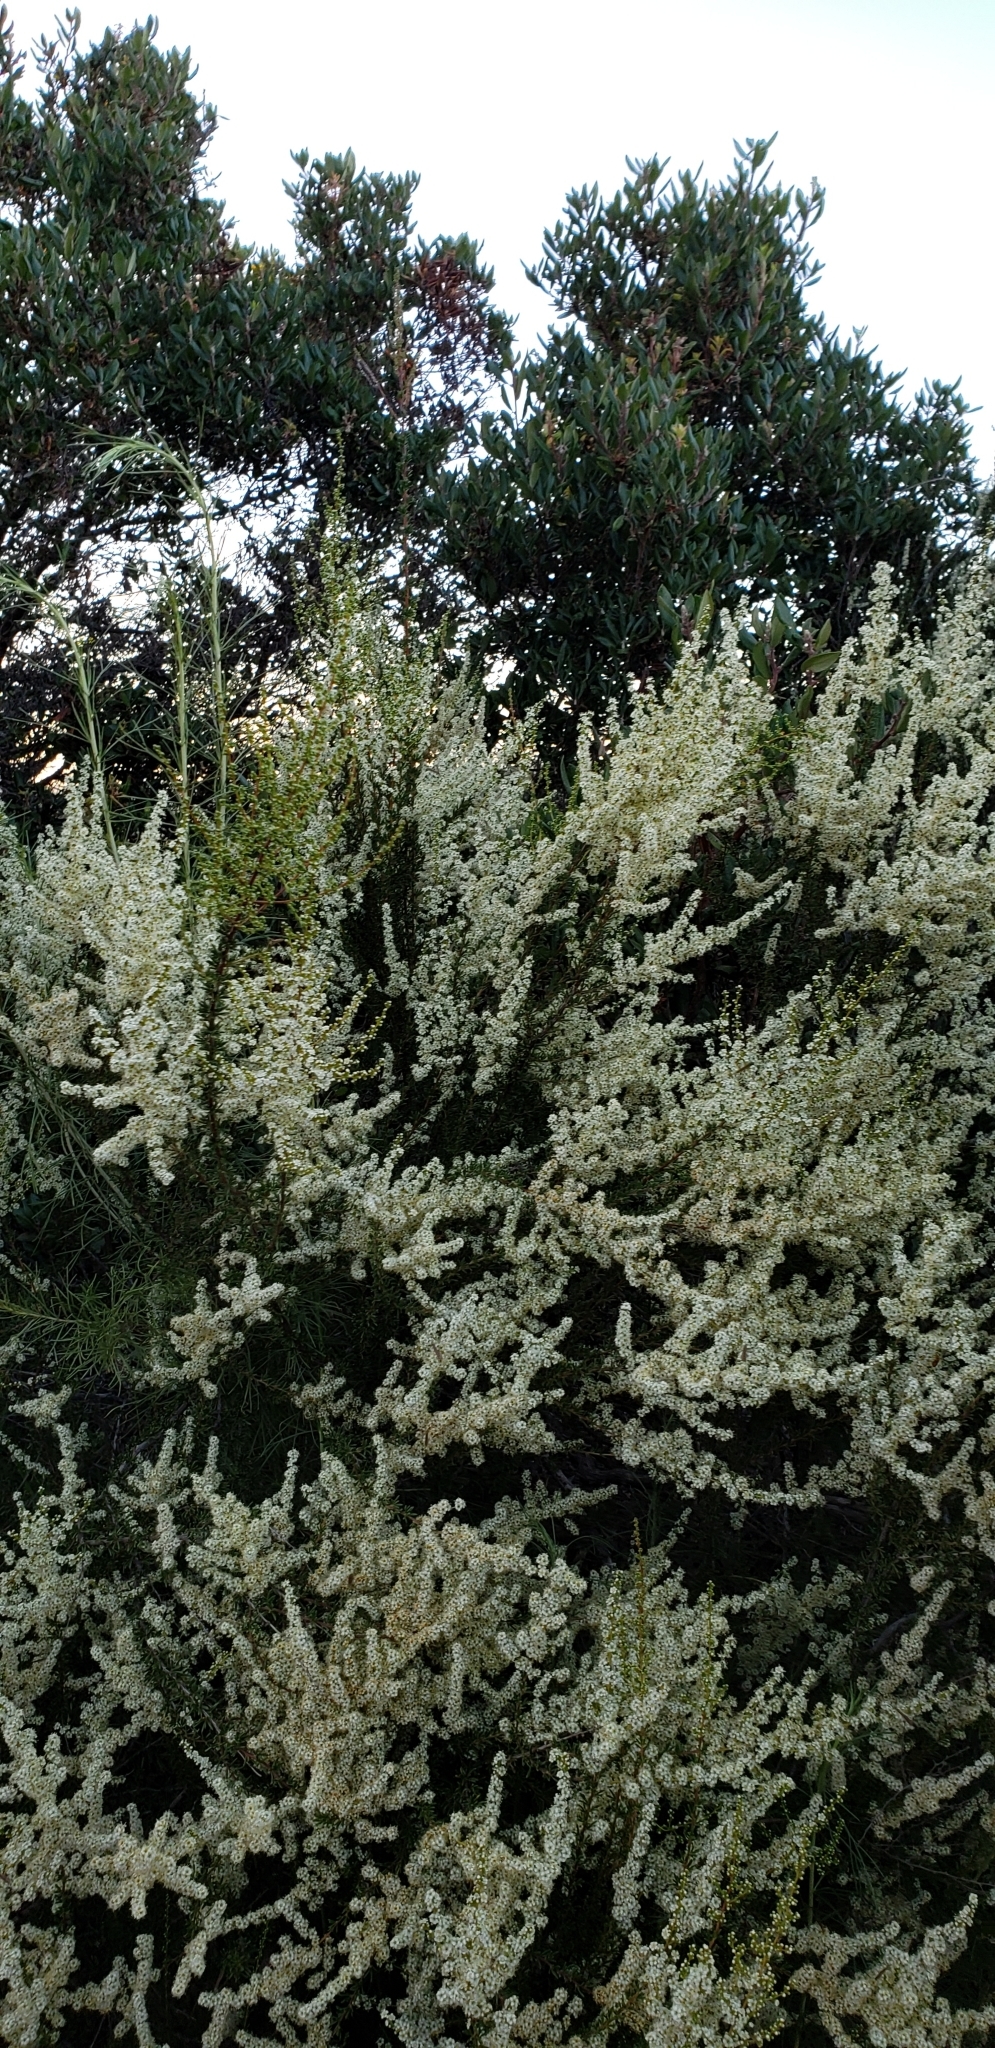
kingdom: Plantae
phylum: Tracheophyta
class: Magnoliopsida
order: Rosales
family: Rosaceae
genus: Adenostoma
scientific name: Adenostoma fasciculatum
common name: Chamise
